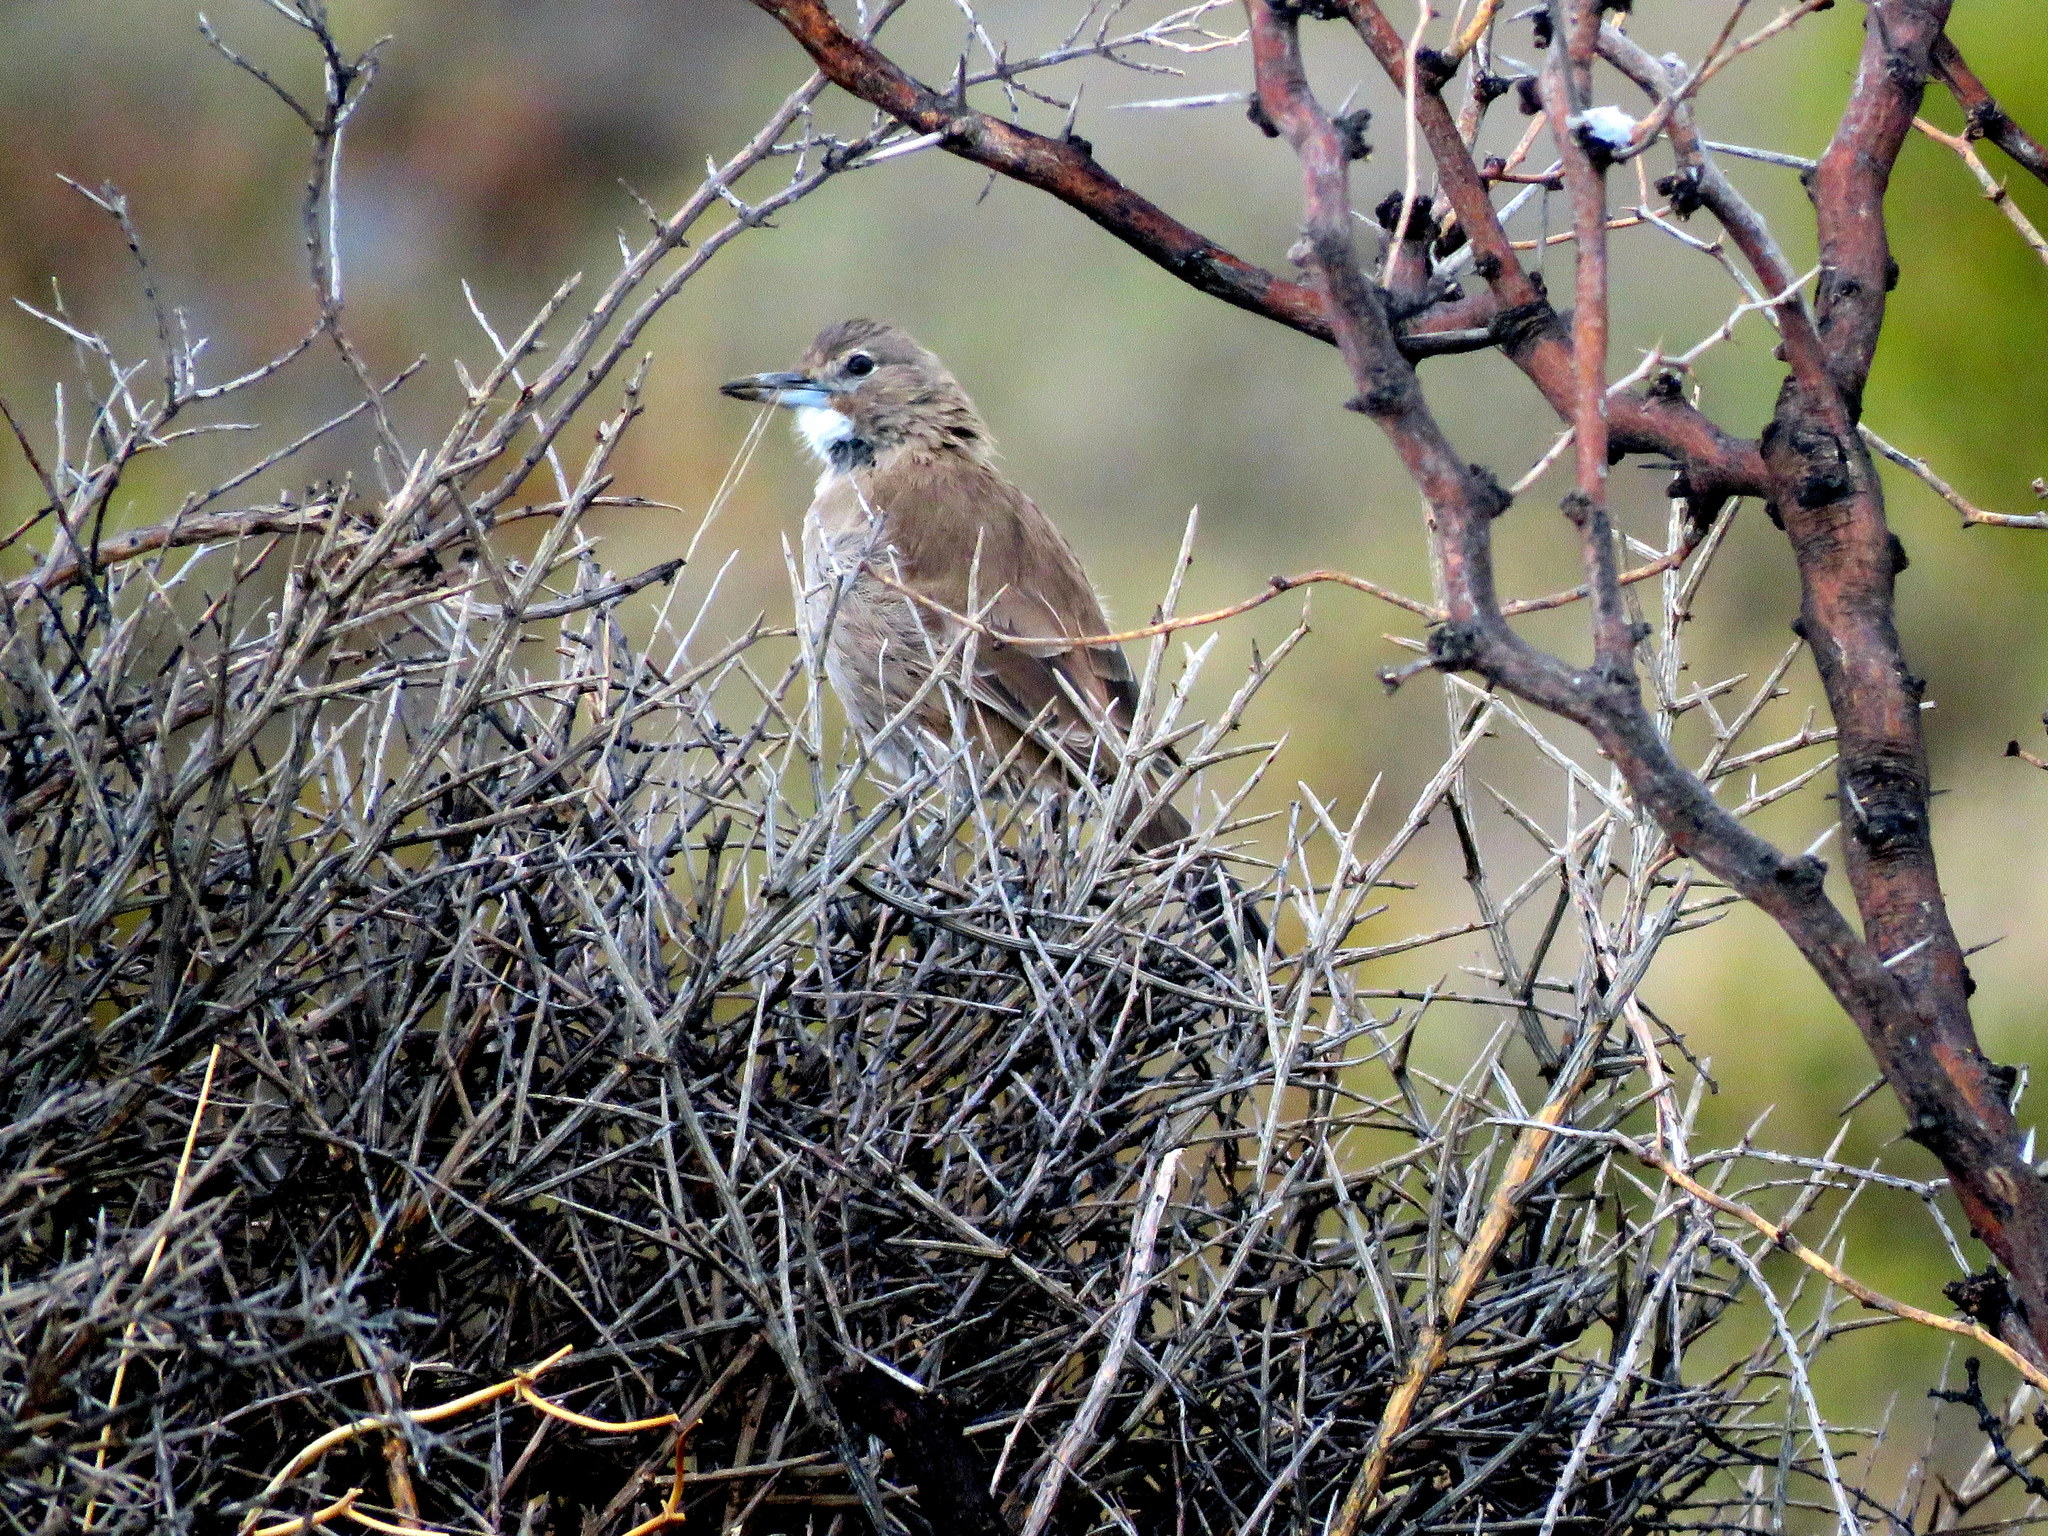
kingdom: Animalia
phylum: Chordata
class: Aves
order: Passeriformes
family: Furnariidae
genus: Pseudoseisura
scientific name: Pseudoseisura gutturalis
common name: White-throated cacholote
